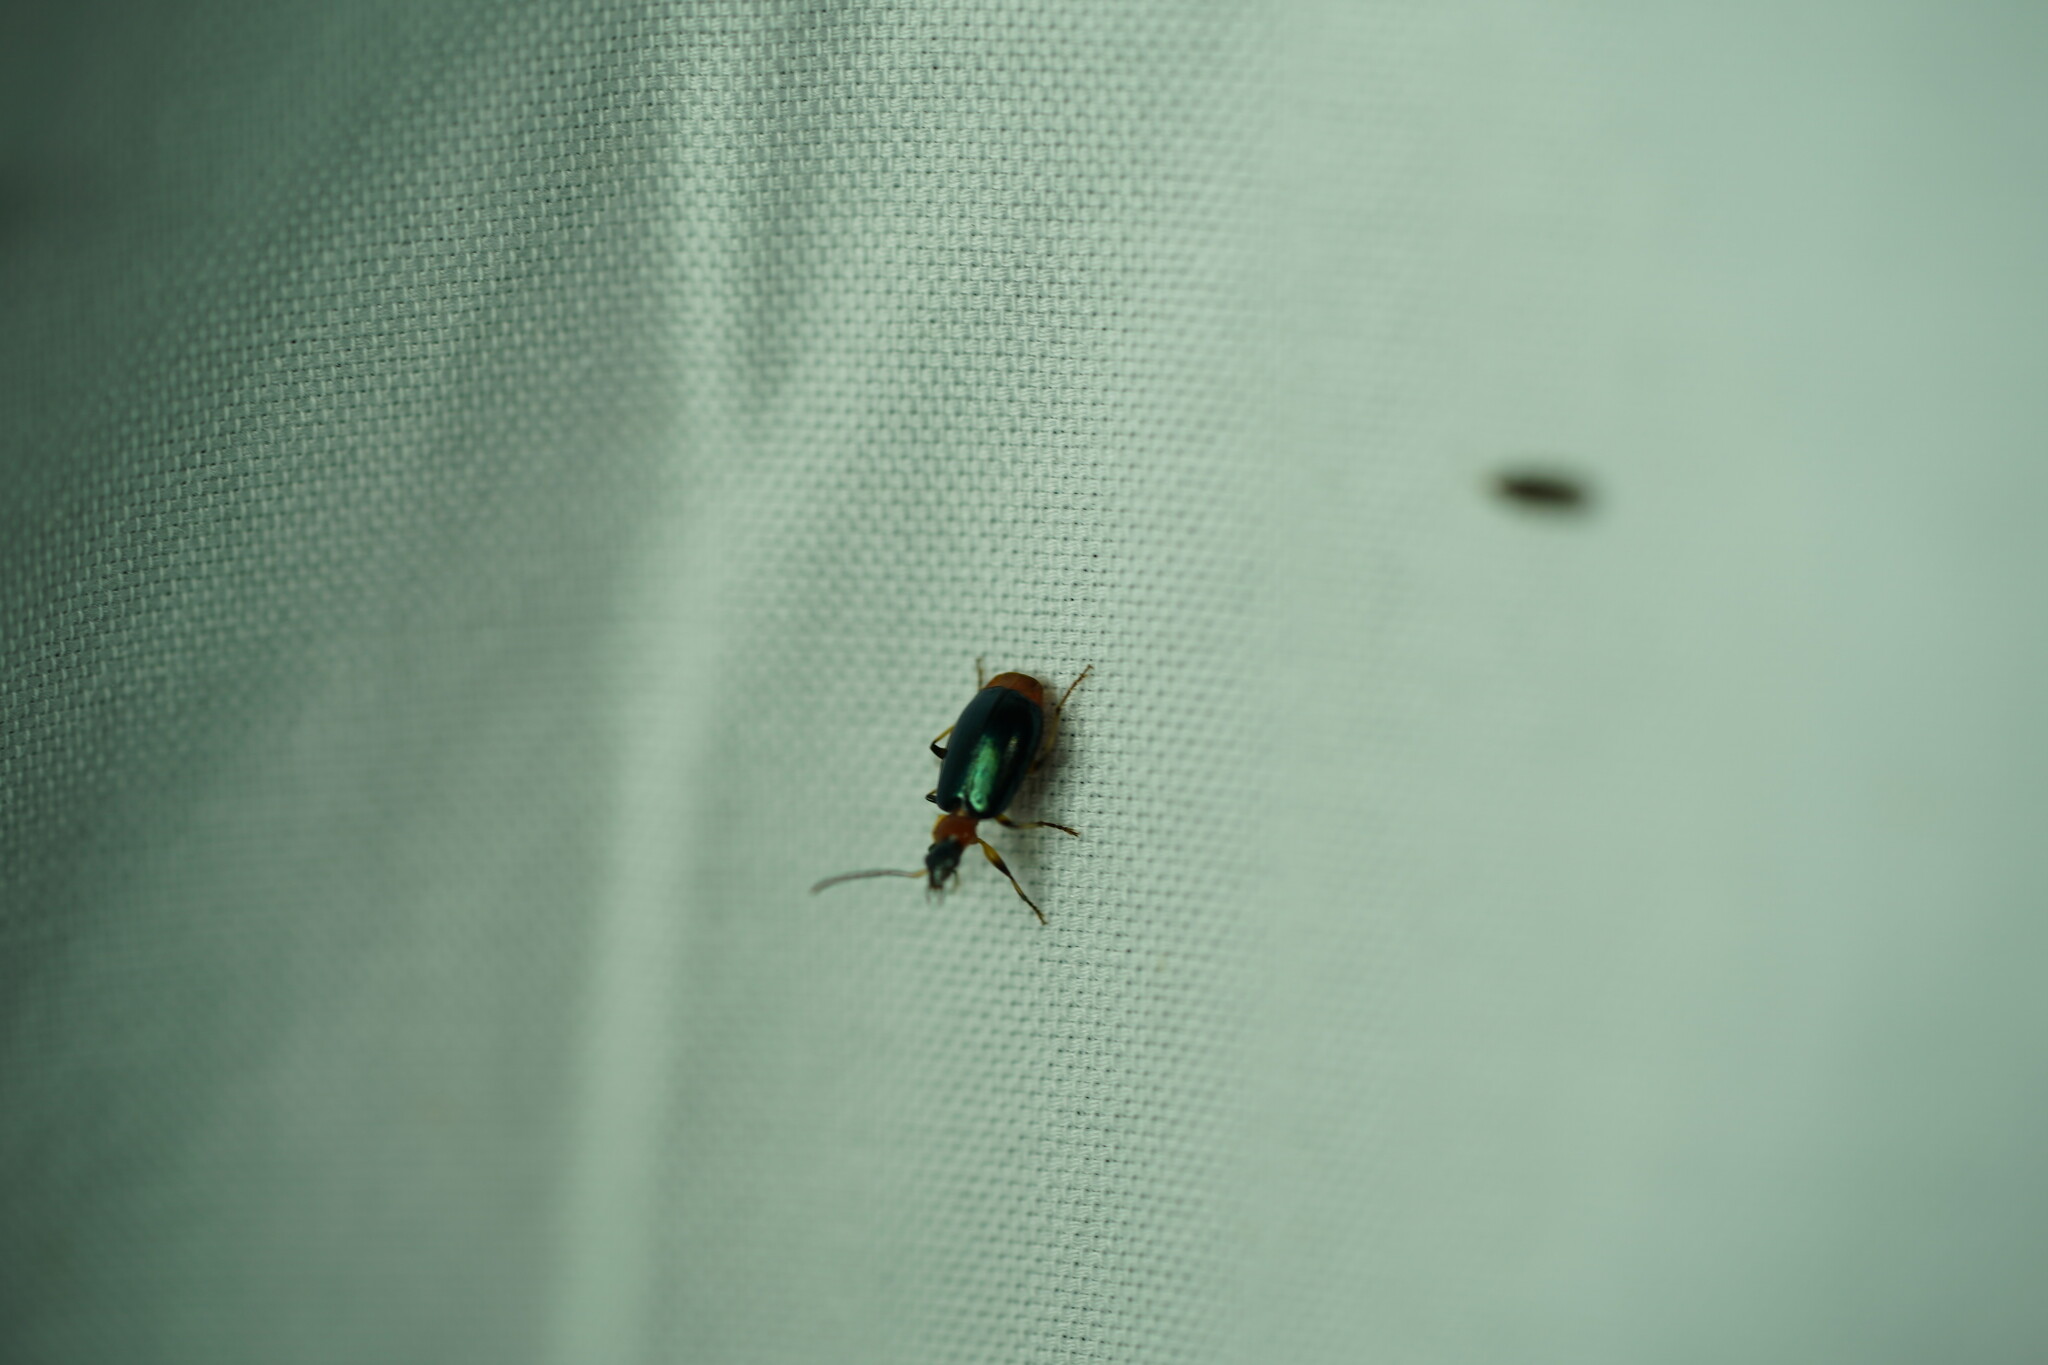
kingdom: Animalia
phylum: Arthropoda
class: Insecta
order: Coleoptera
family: Carabidae
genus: Lebia
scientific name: Lebia viridipennis
